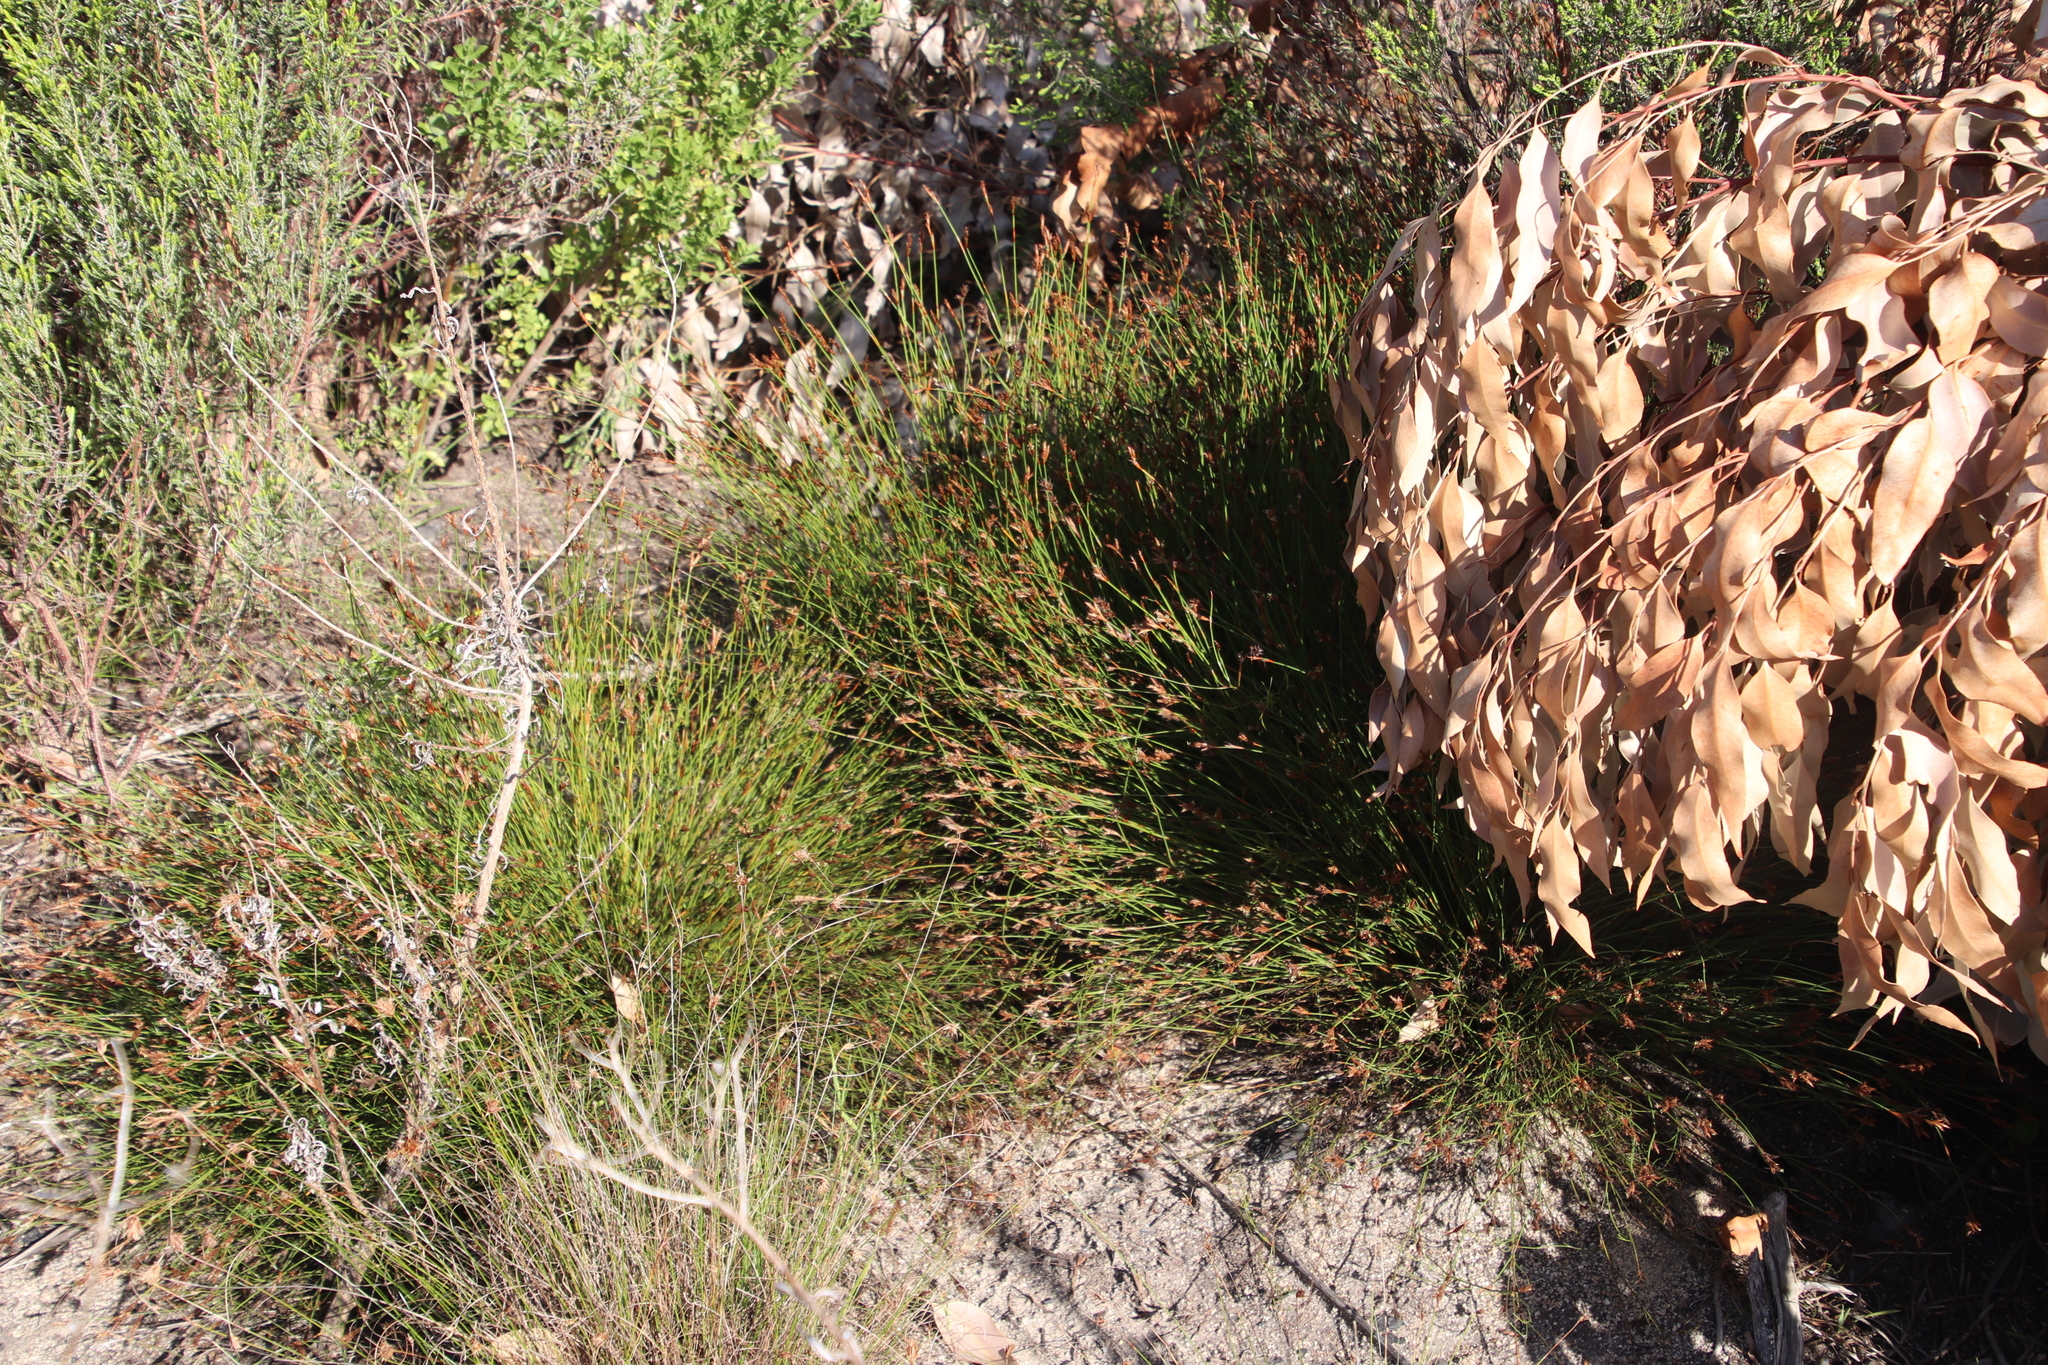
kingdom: Plantae
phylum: Tracheophyta
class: Liliopsida
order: Poales
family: Restionaceae
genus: Restio
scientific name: Restio capensis
